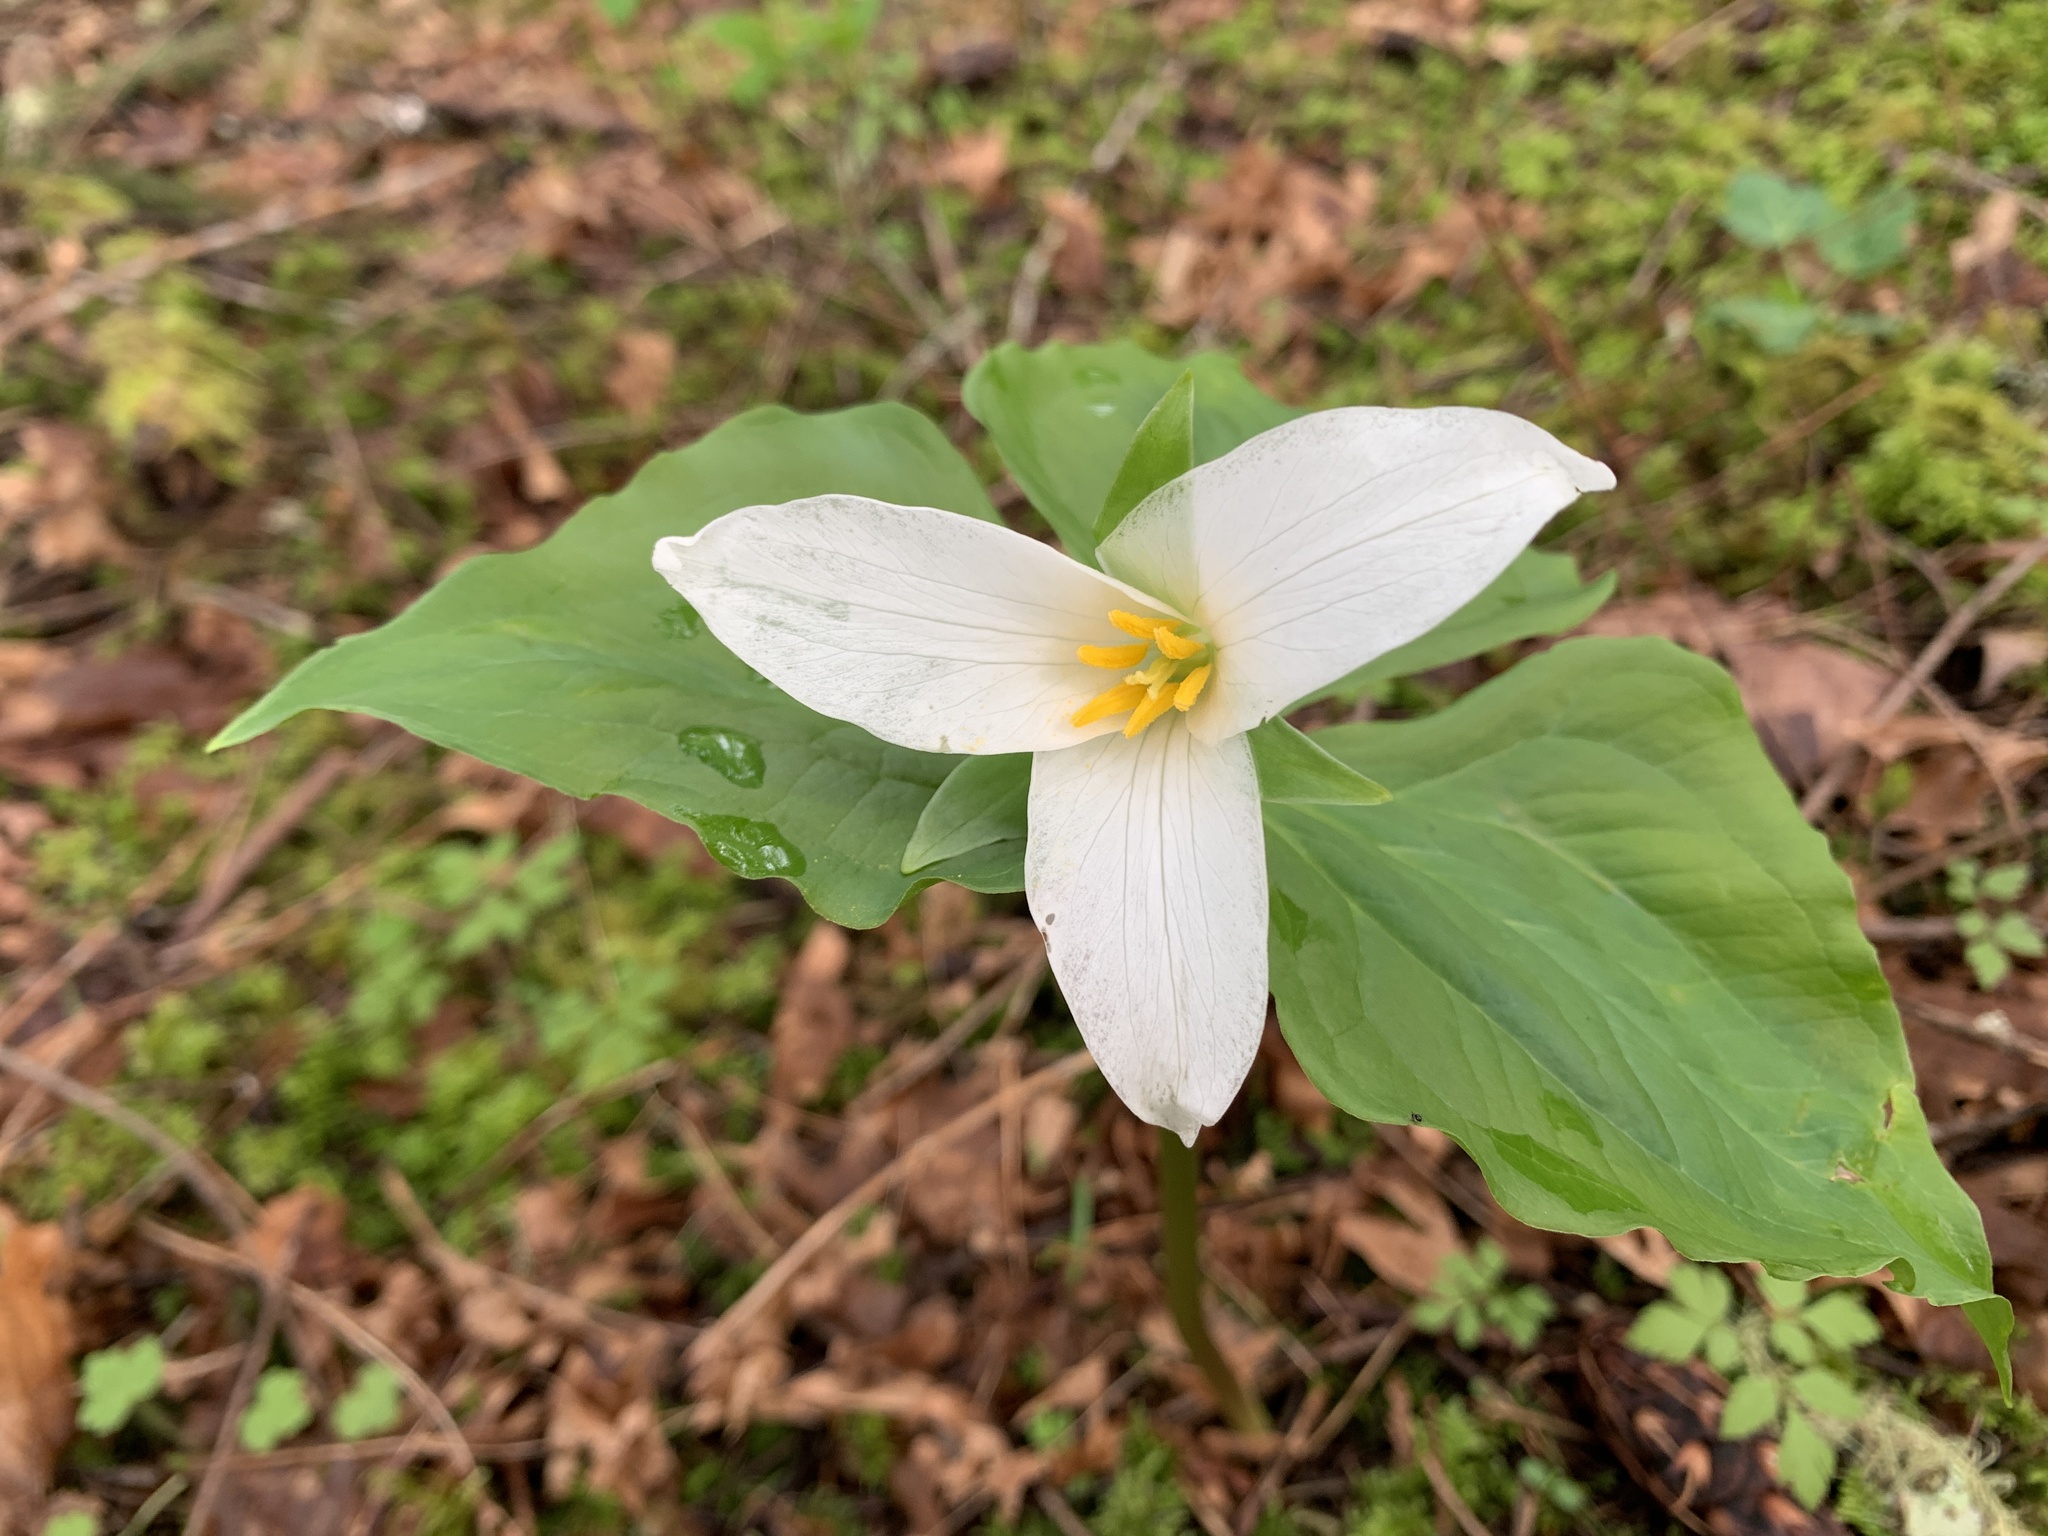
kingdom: Plantae
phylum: Tracheophyta
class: Liliopsida
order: Liliales
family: Melanthiaceae
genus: Trillium
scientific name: Trillium ovatum
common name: Pacific trillium
